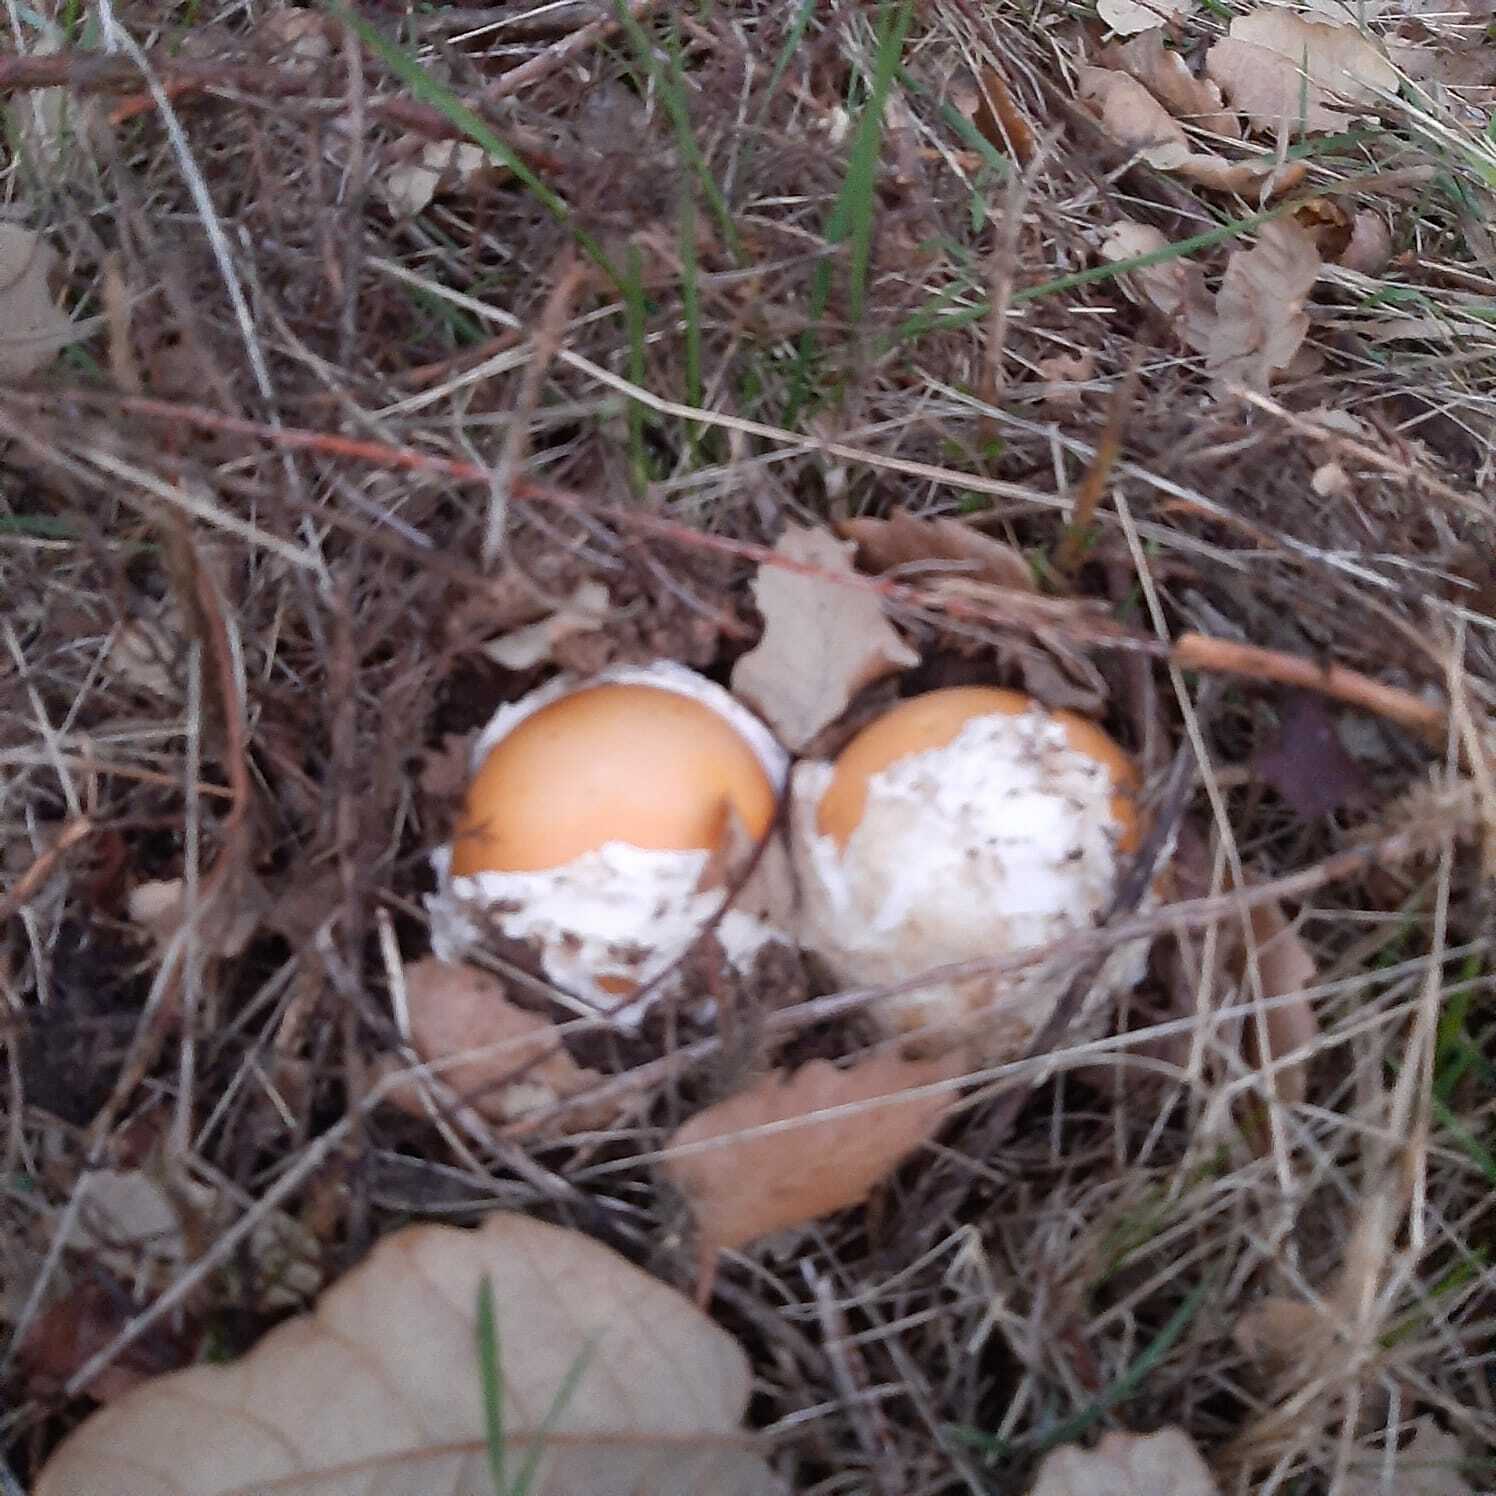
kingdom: Fungi
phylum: Basidiomycota
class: Agaricomycetes
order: Agaricales
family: Amanitaceae
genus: Amanita
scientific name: Amanita caesarea
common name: Caesar's amanita
